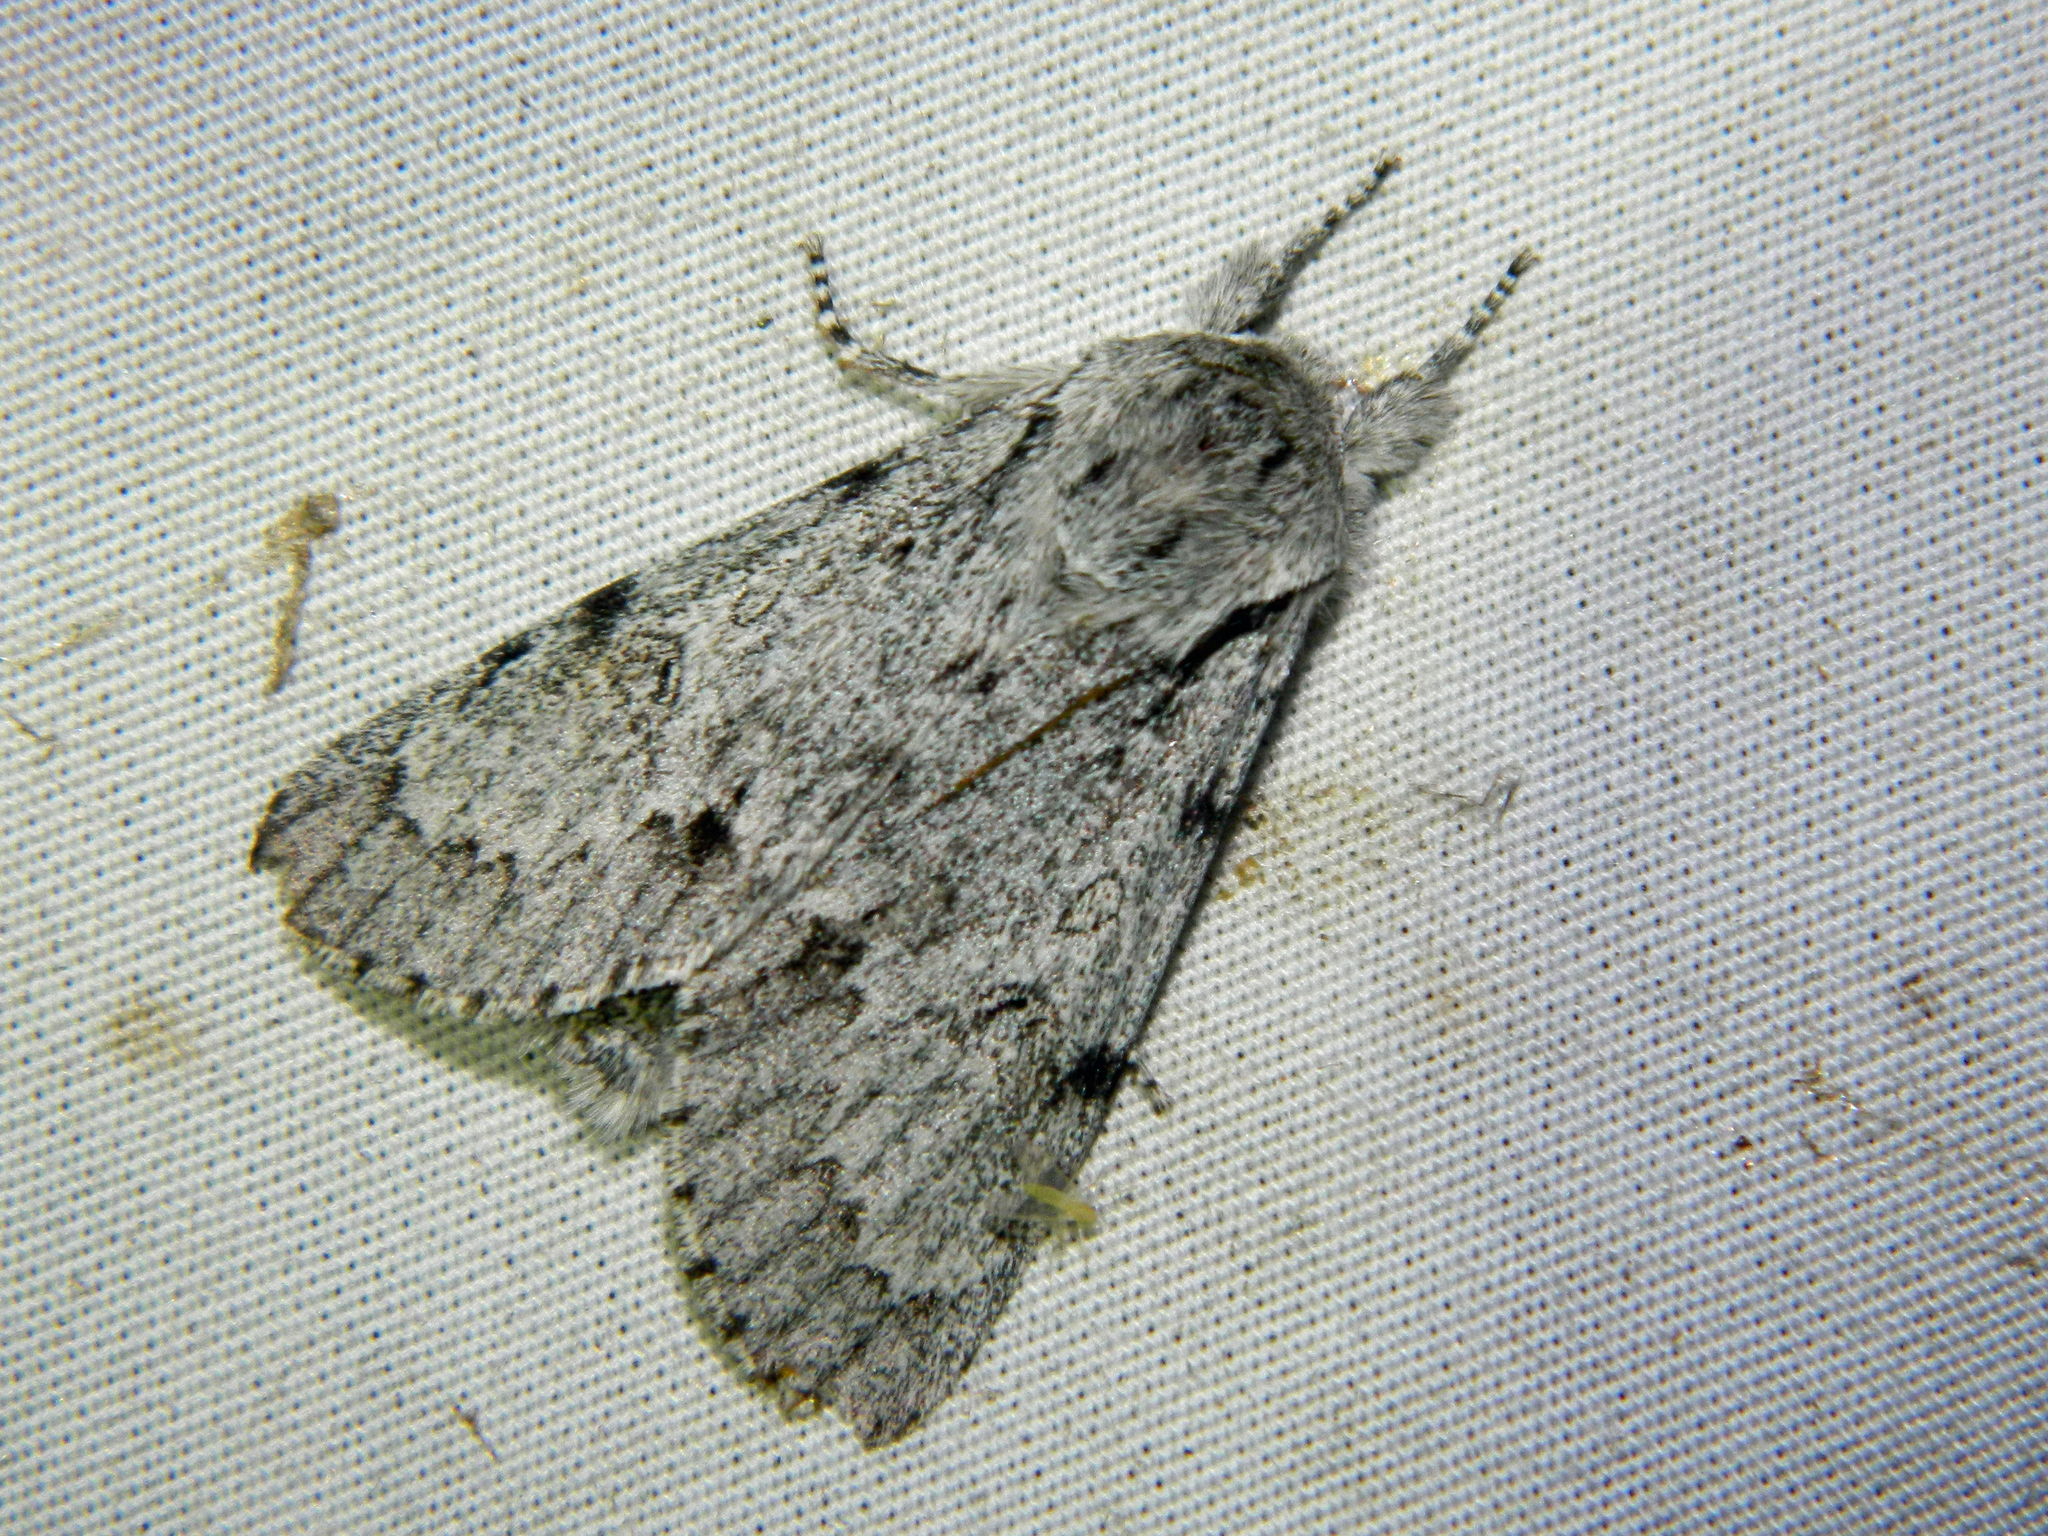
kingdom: Animalia
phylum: Arthropoda
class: Insecta
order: Lepidoptera
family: Noctuidae
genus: Acronicta
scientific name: Acronicta lepusculina
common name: Cottonwood dagger
